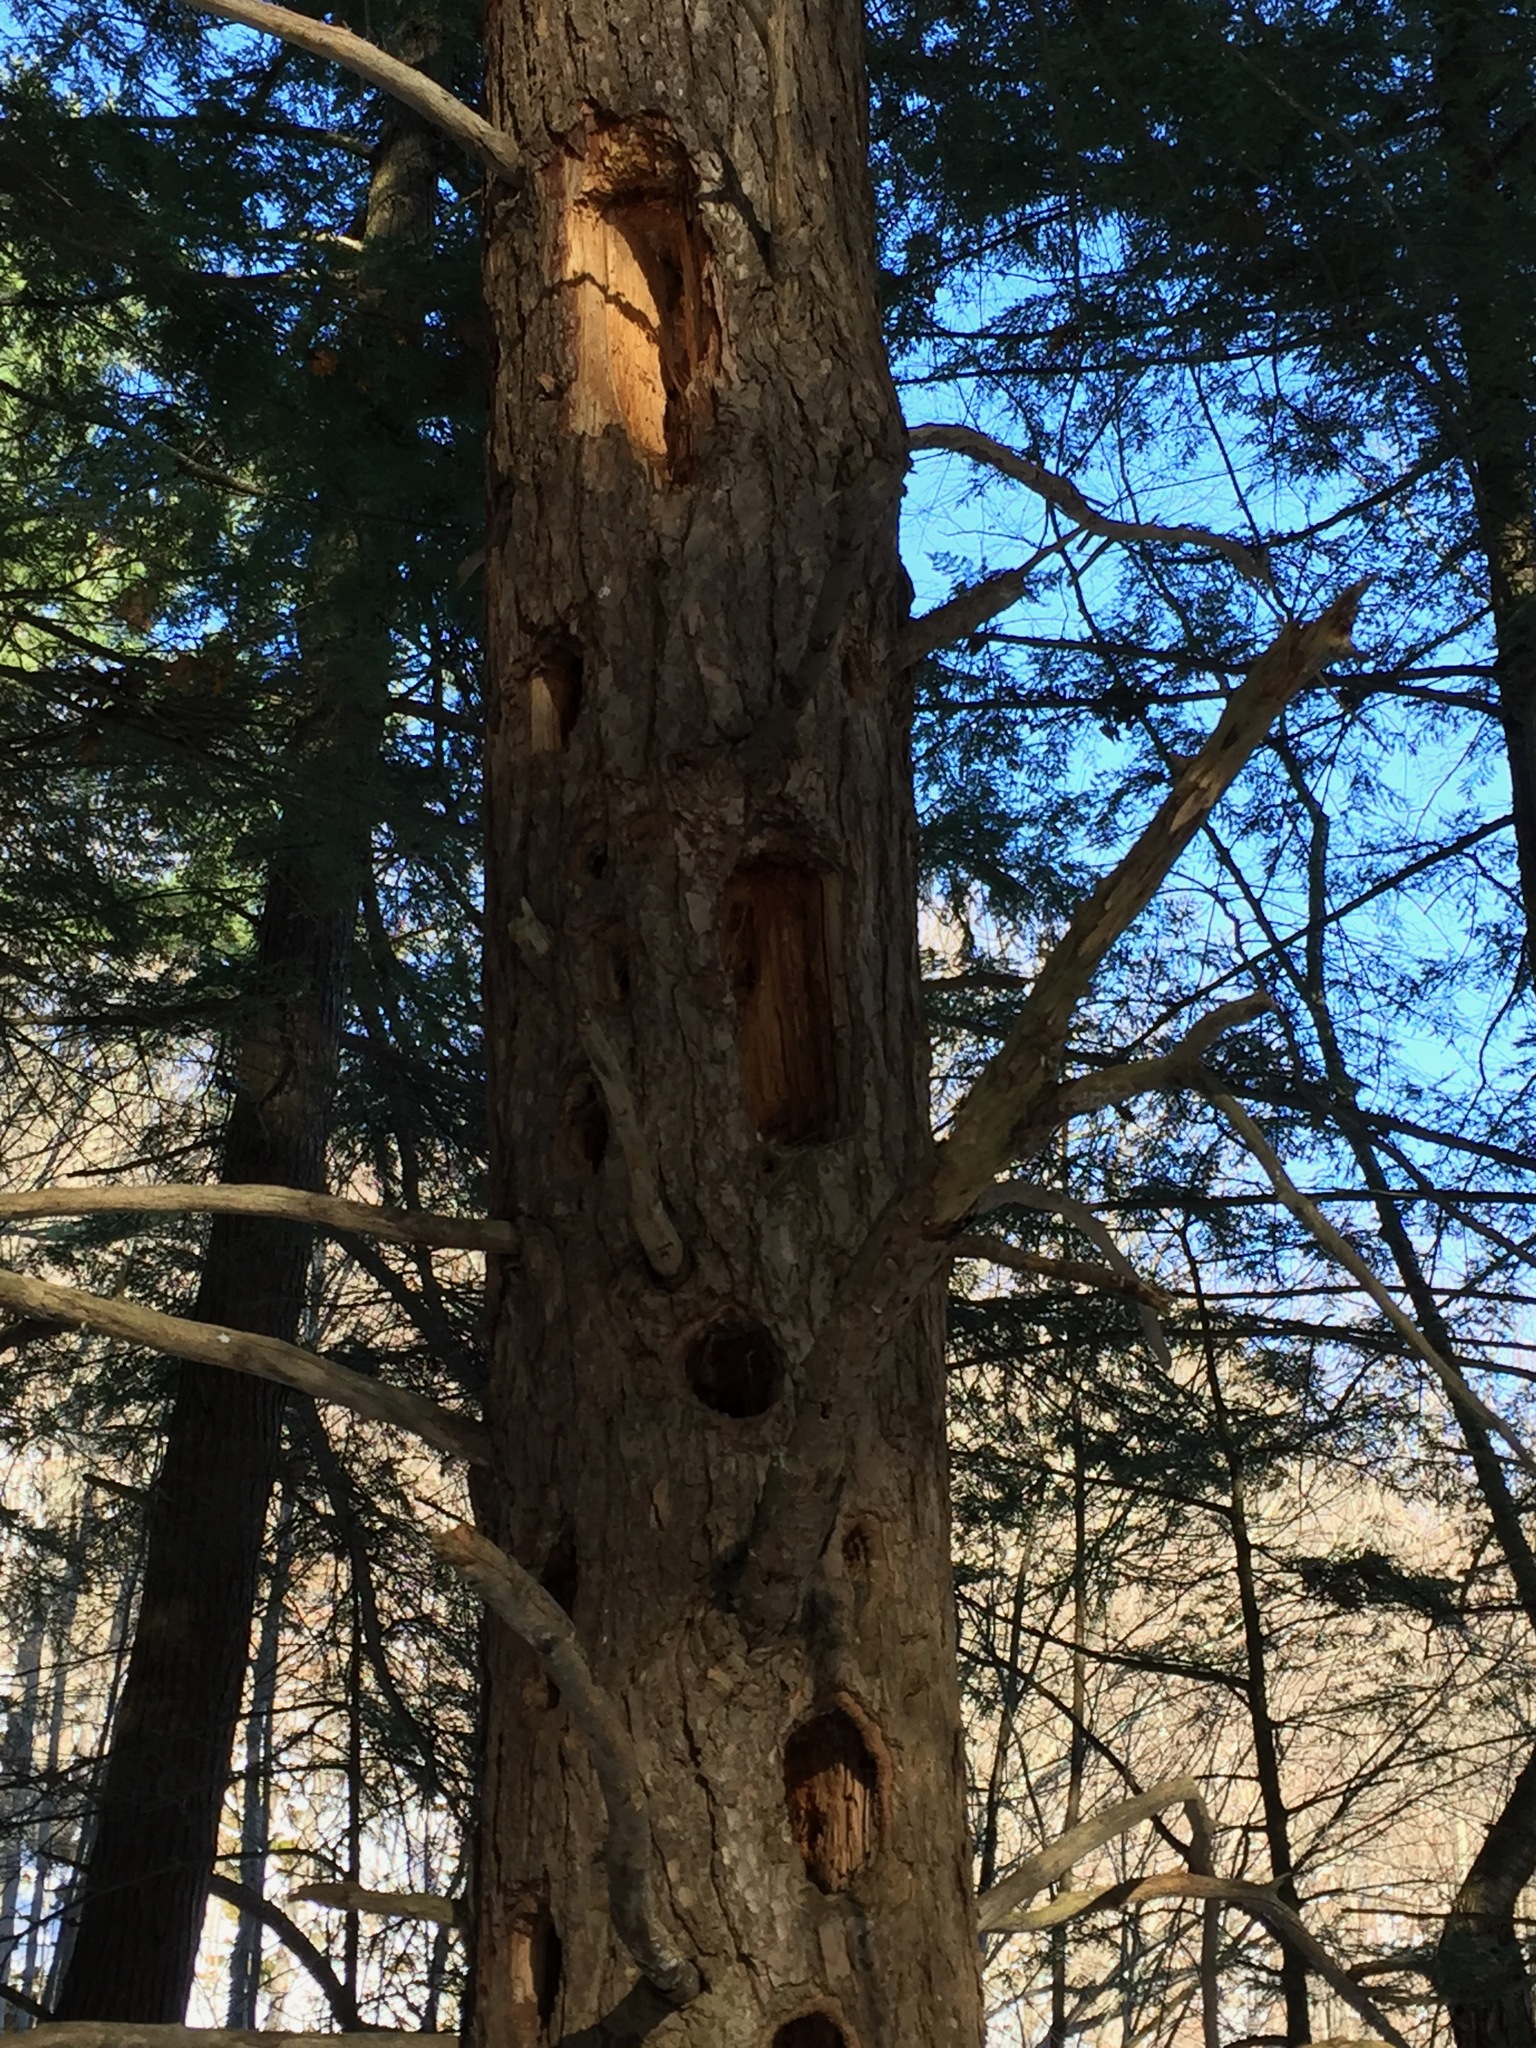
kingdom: Animalia
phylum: Chordata
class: Aves
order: Piciformes
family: Picidae
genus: Dryocopus
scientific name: Dryocopus pileatus
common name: Pileated woodpecker
